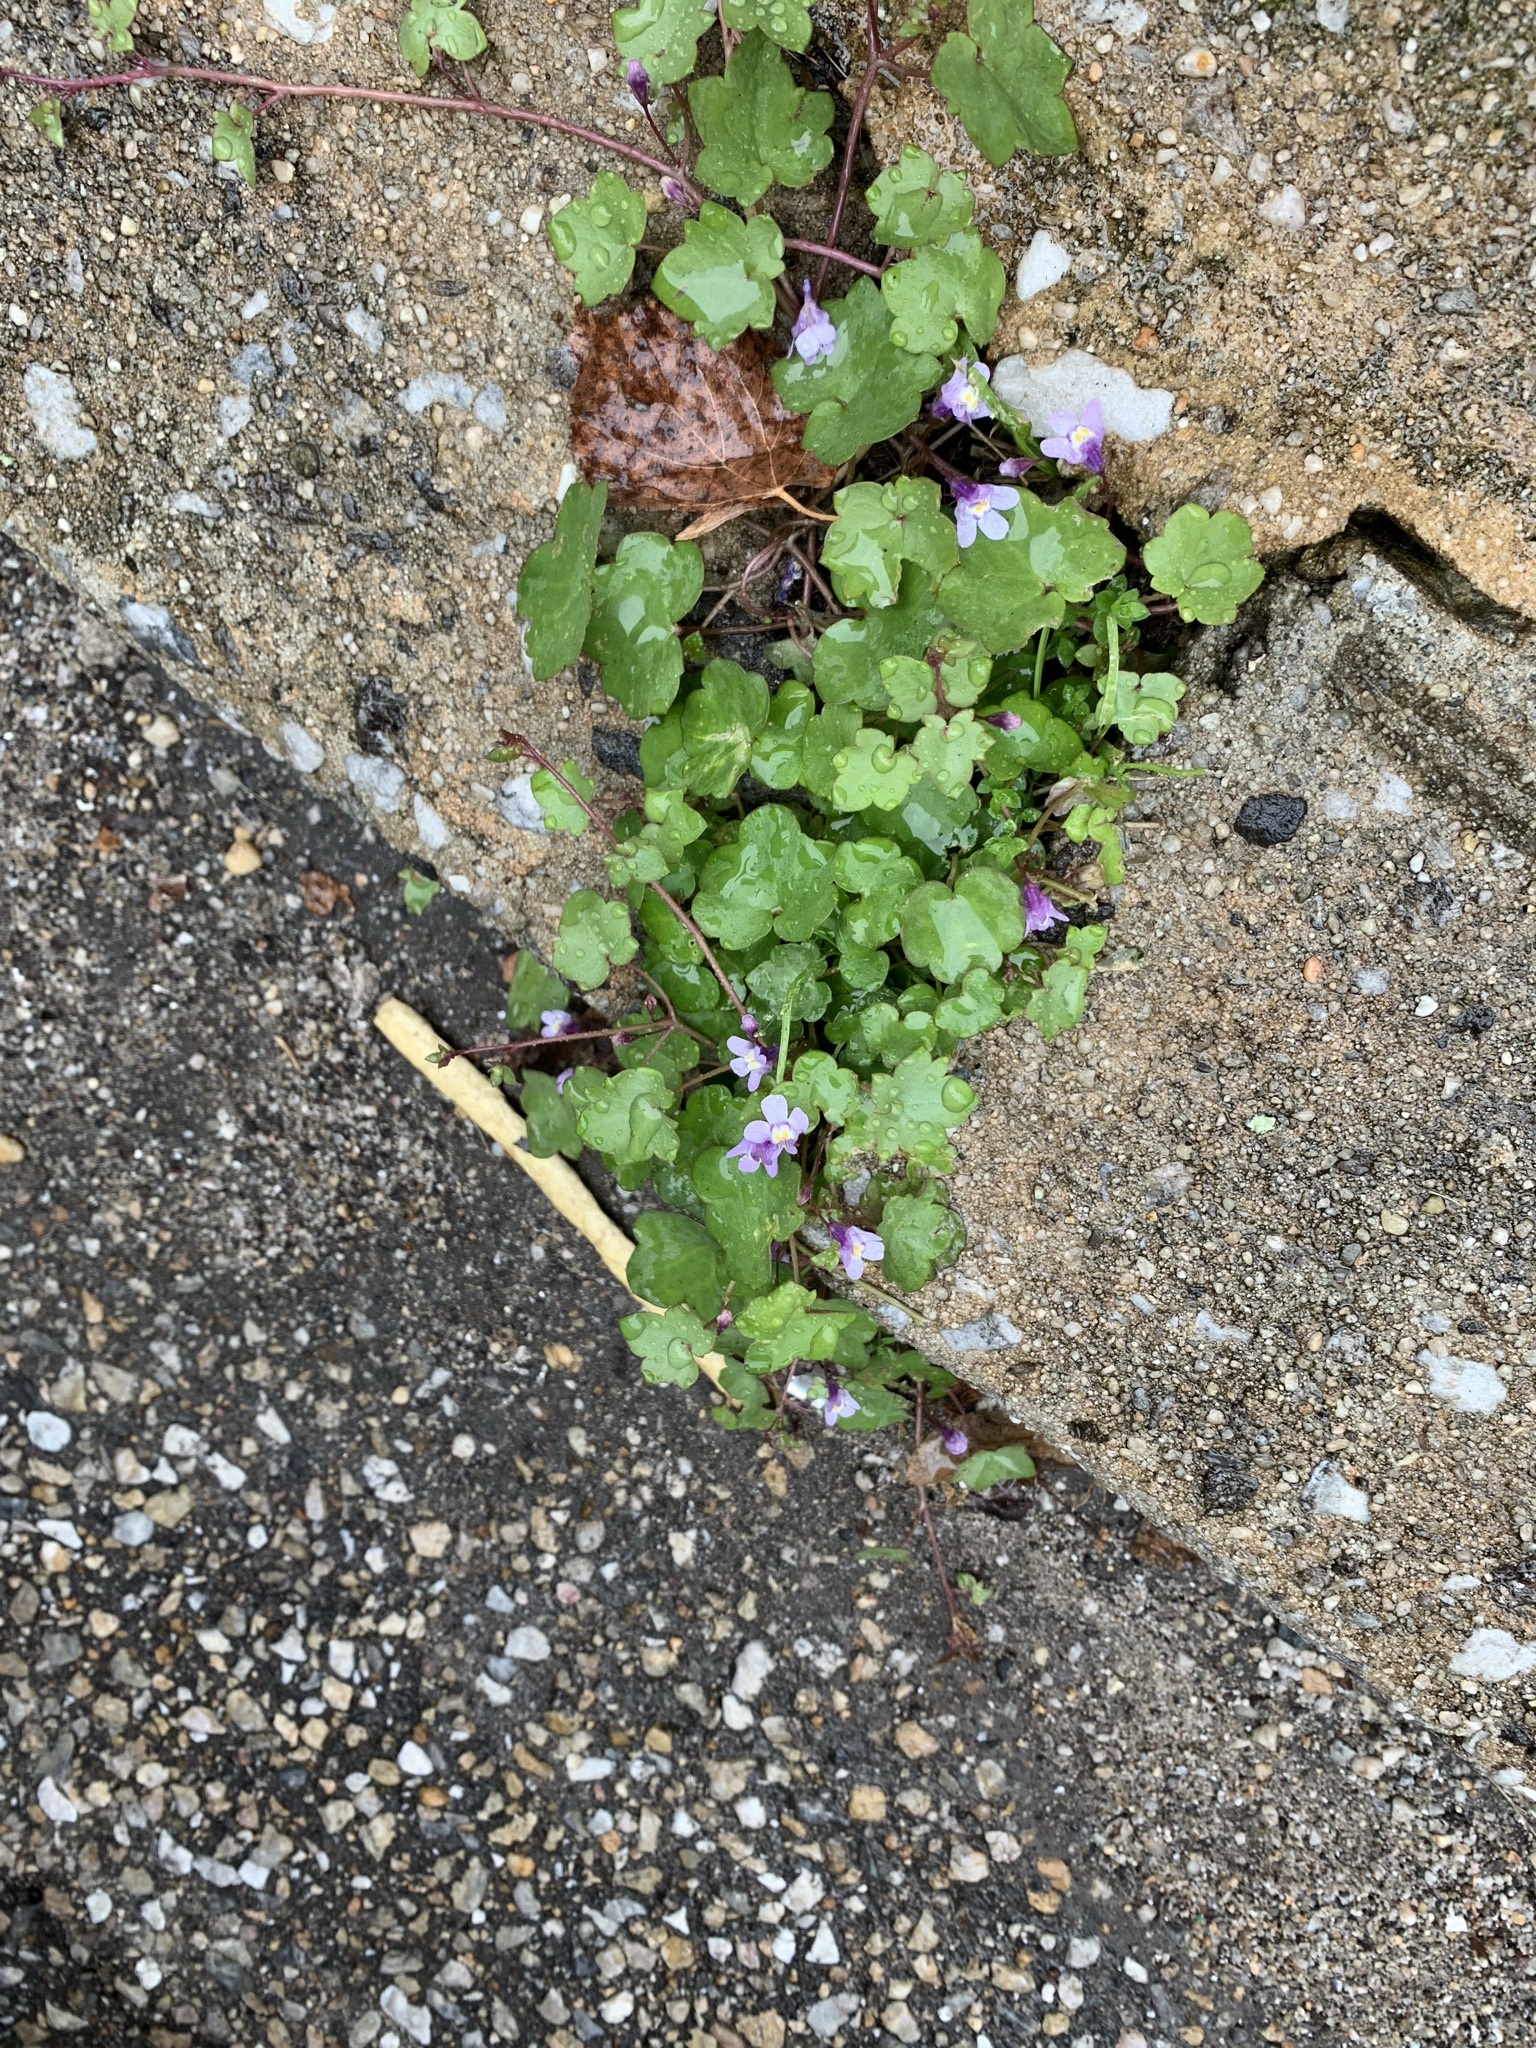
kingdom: Plantae
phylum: Tracheophyta
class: Magnoliopsida
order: Lamiales
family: Plantaginaceae
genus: Cymbalaria
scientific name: Cymbalaria muralis
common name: Ivy-leaved toadflax
